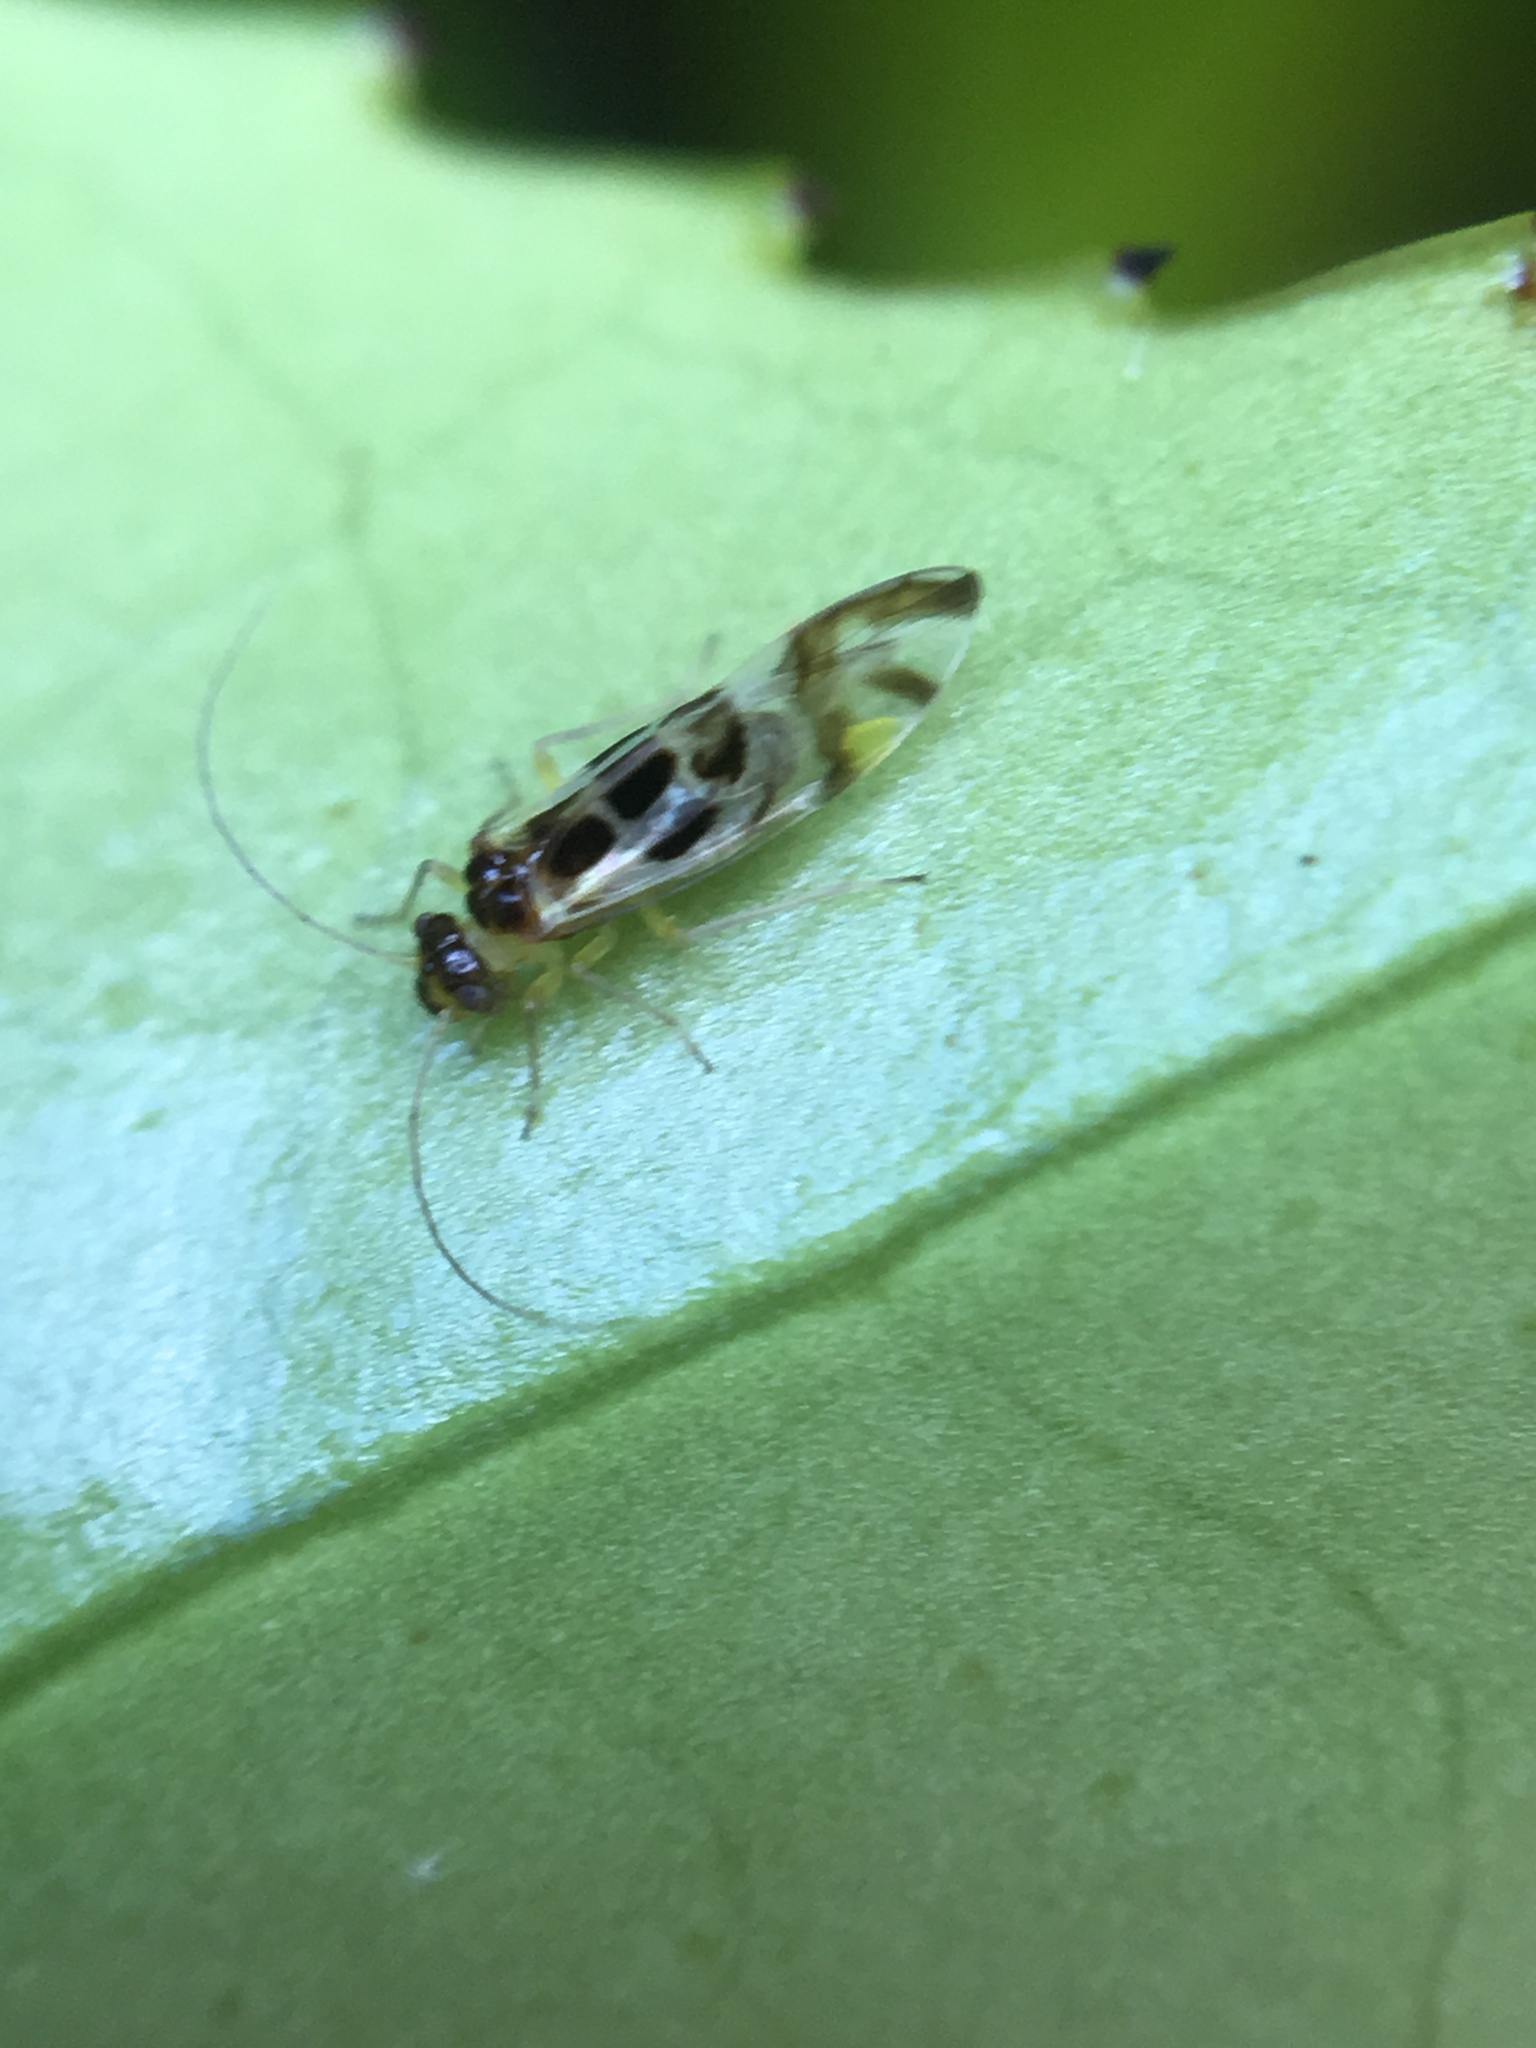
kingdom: Animalia
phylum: Arthropoda
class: Insecta
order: Psocodea
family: Stenopsocidae
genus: Graphopsocus
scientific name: Graphopsocus cruciatus
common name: Lizard bark louse
